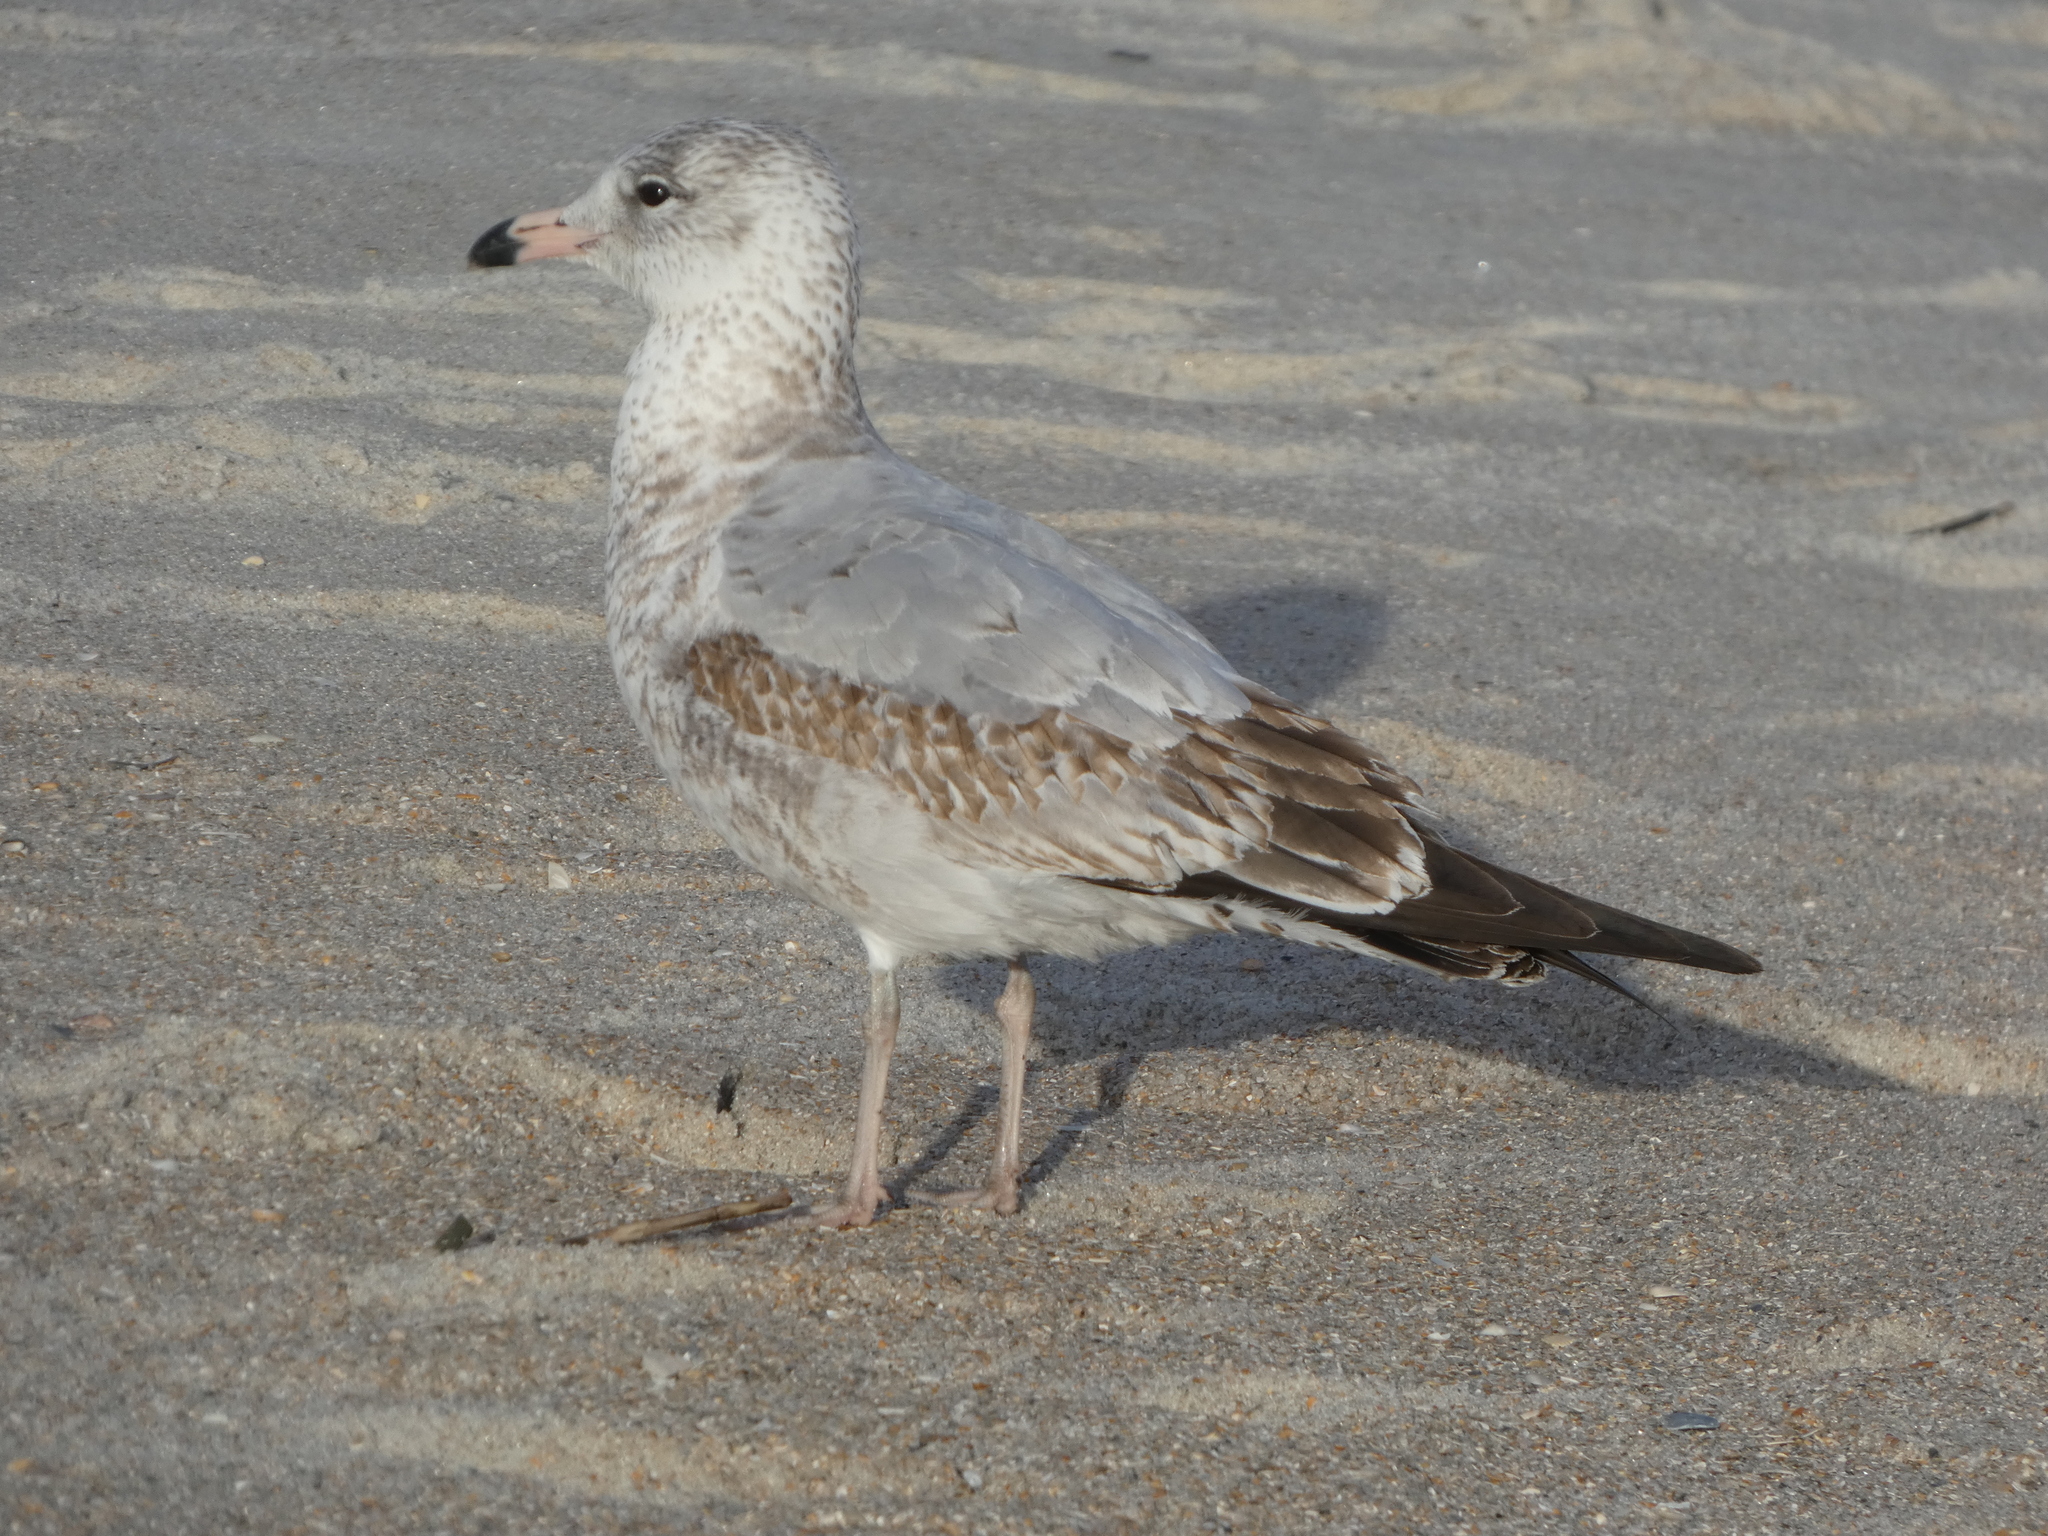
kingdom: Animalia
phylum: Chordata
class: Aves
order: Charadriiformes
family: Laridae
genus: Larus
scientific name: Larus delawarensis
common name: Ring-billed gull
